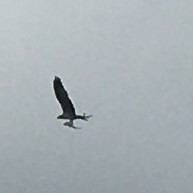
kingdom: Animalia
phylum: Chordata
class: Aves
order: Accipitriformes
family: Pandionidae
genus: Pandion
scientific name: Pandion haliaetus
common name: Osprey
